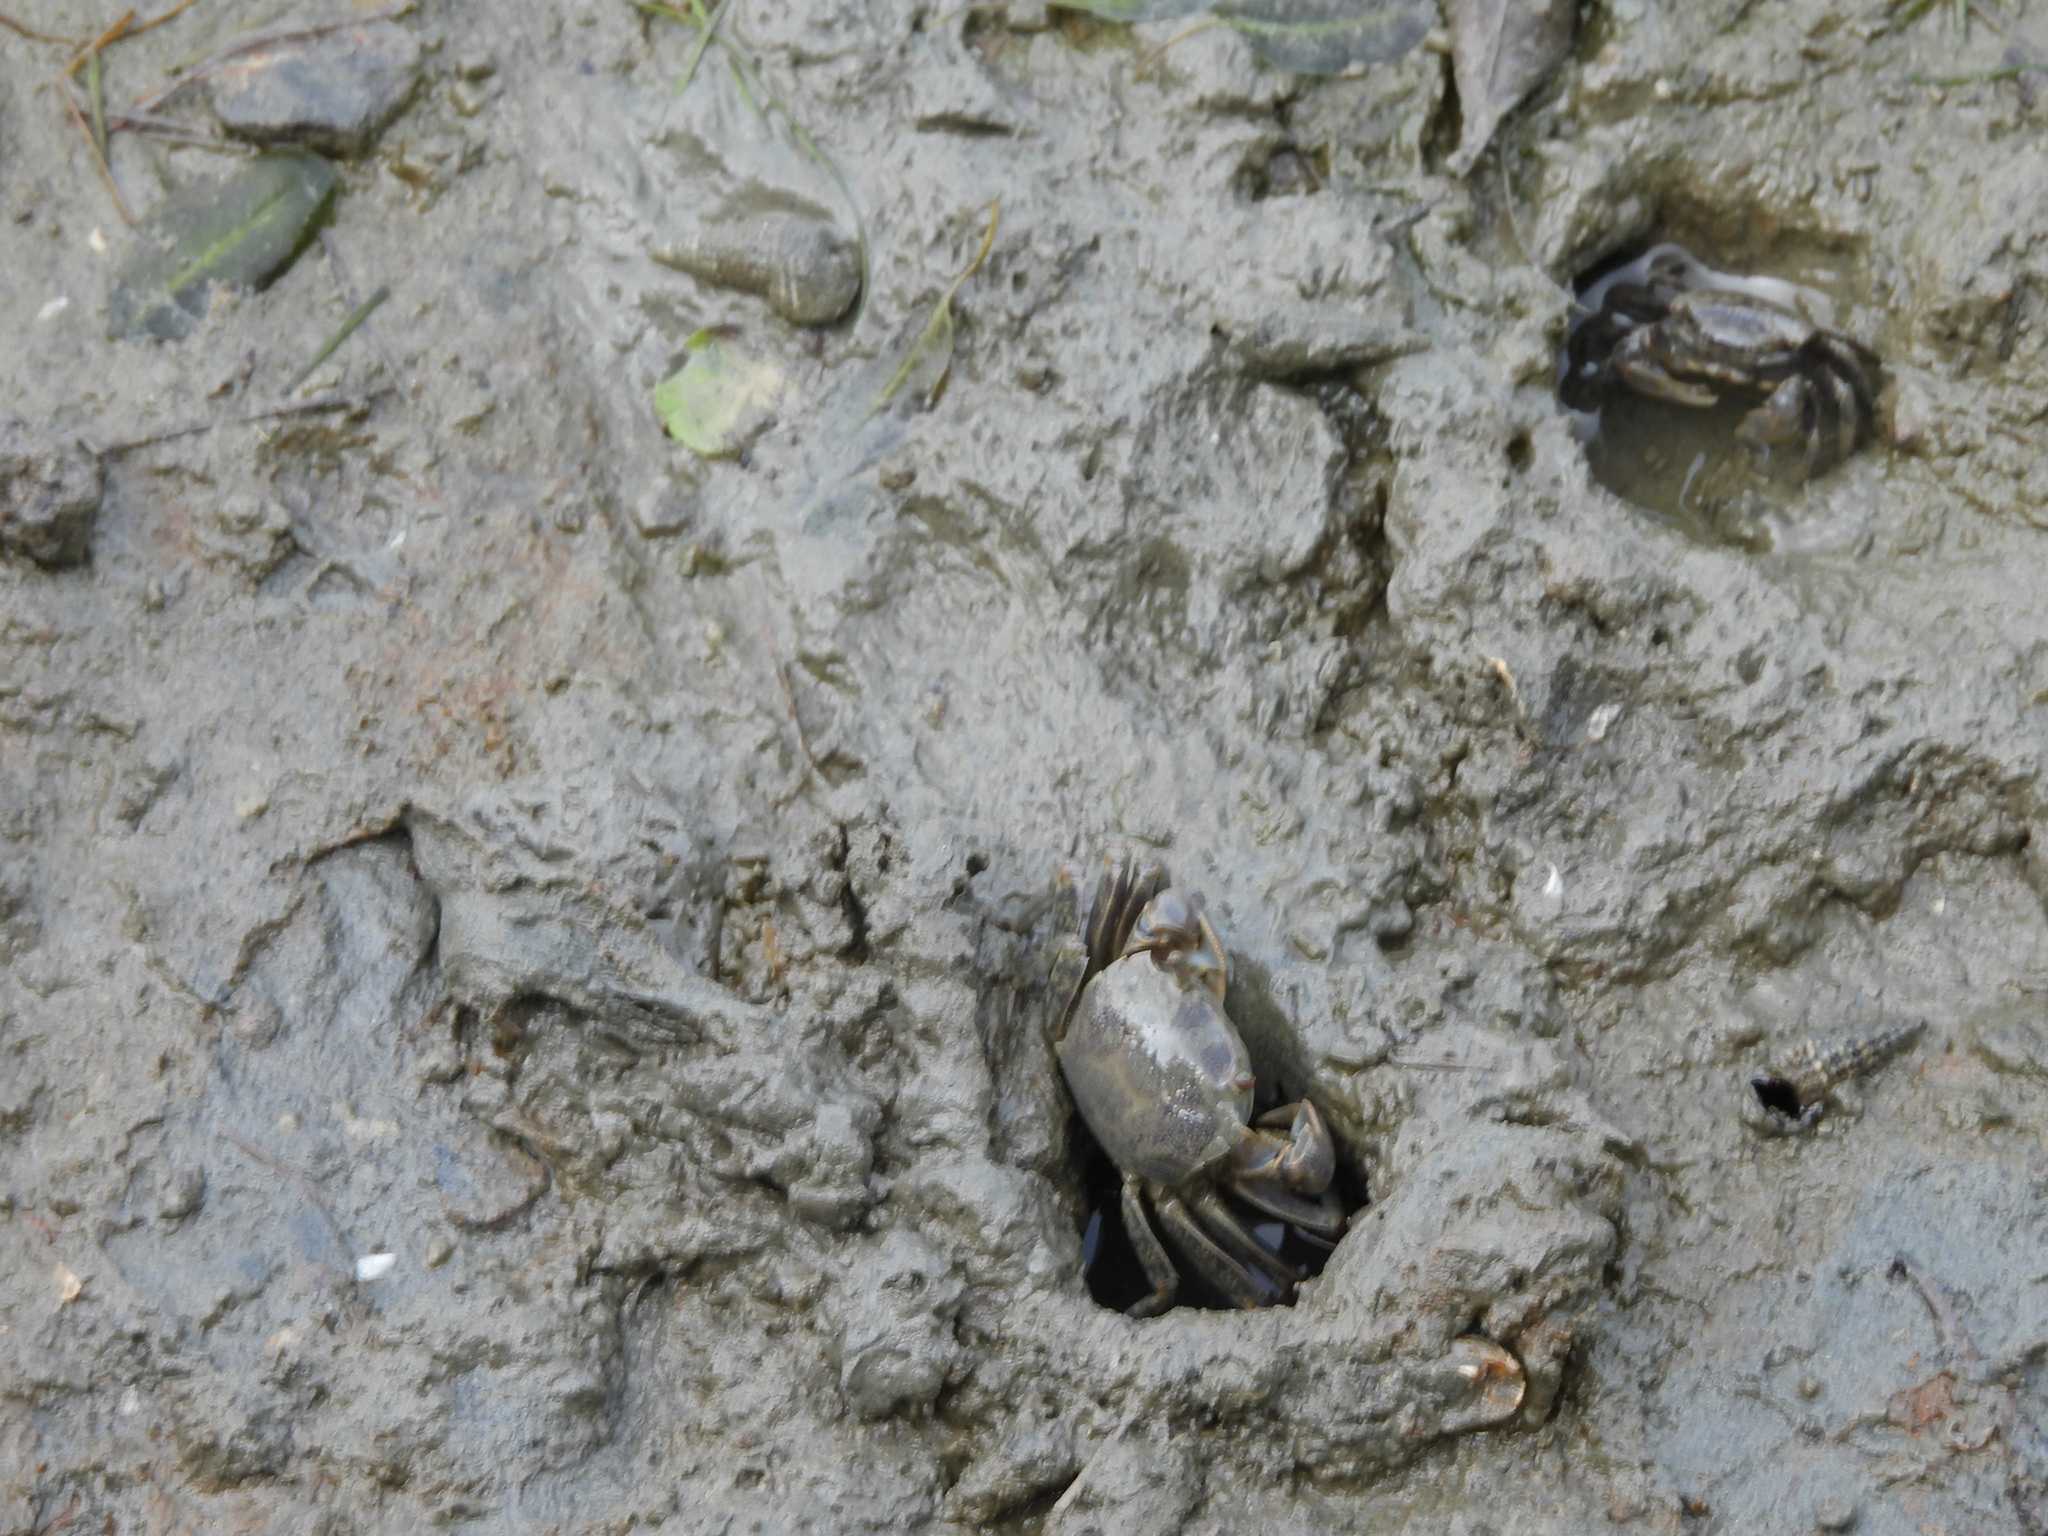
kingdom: Animalia
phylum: Arthropoda
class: Malacostraca
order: Decapoda
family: Varunidae
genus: Helice
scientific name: Helice formosensis
